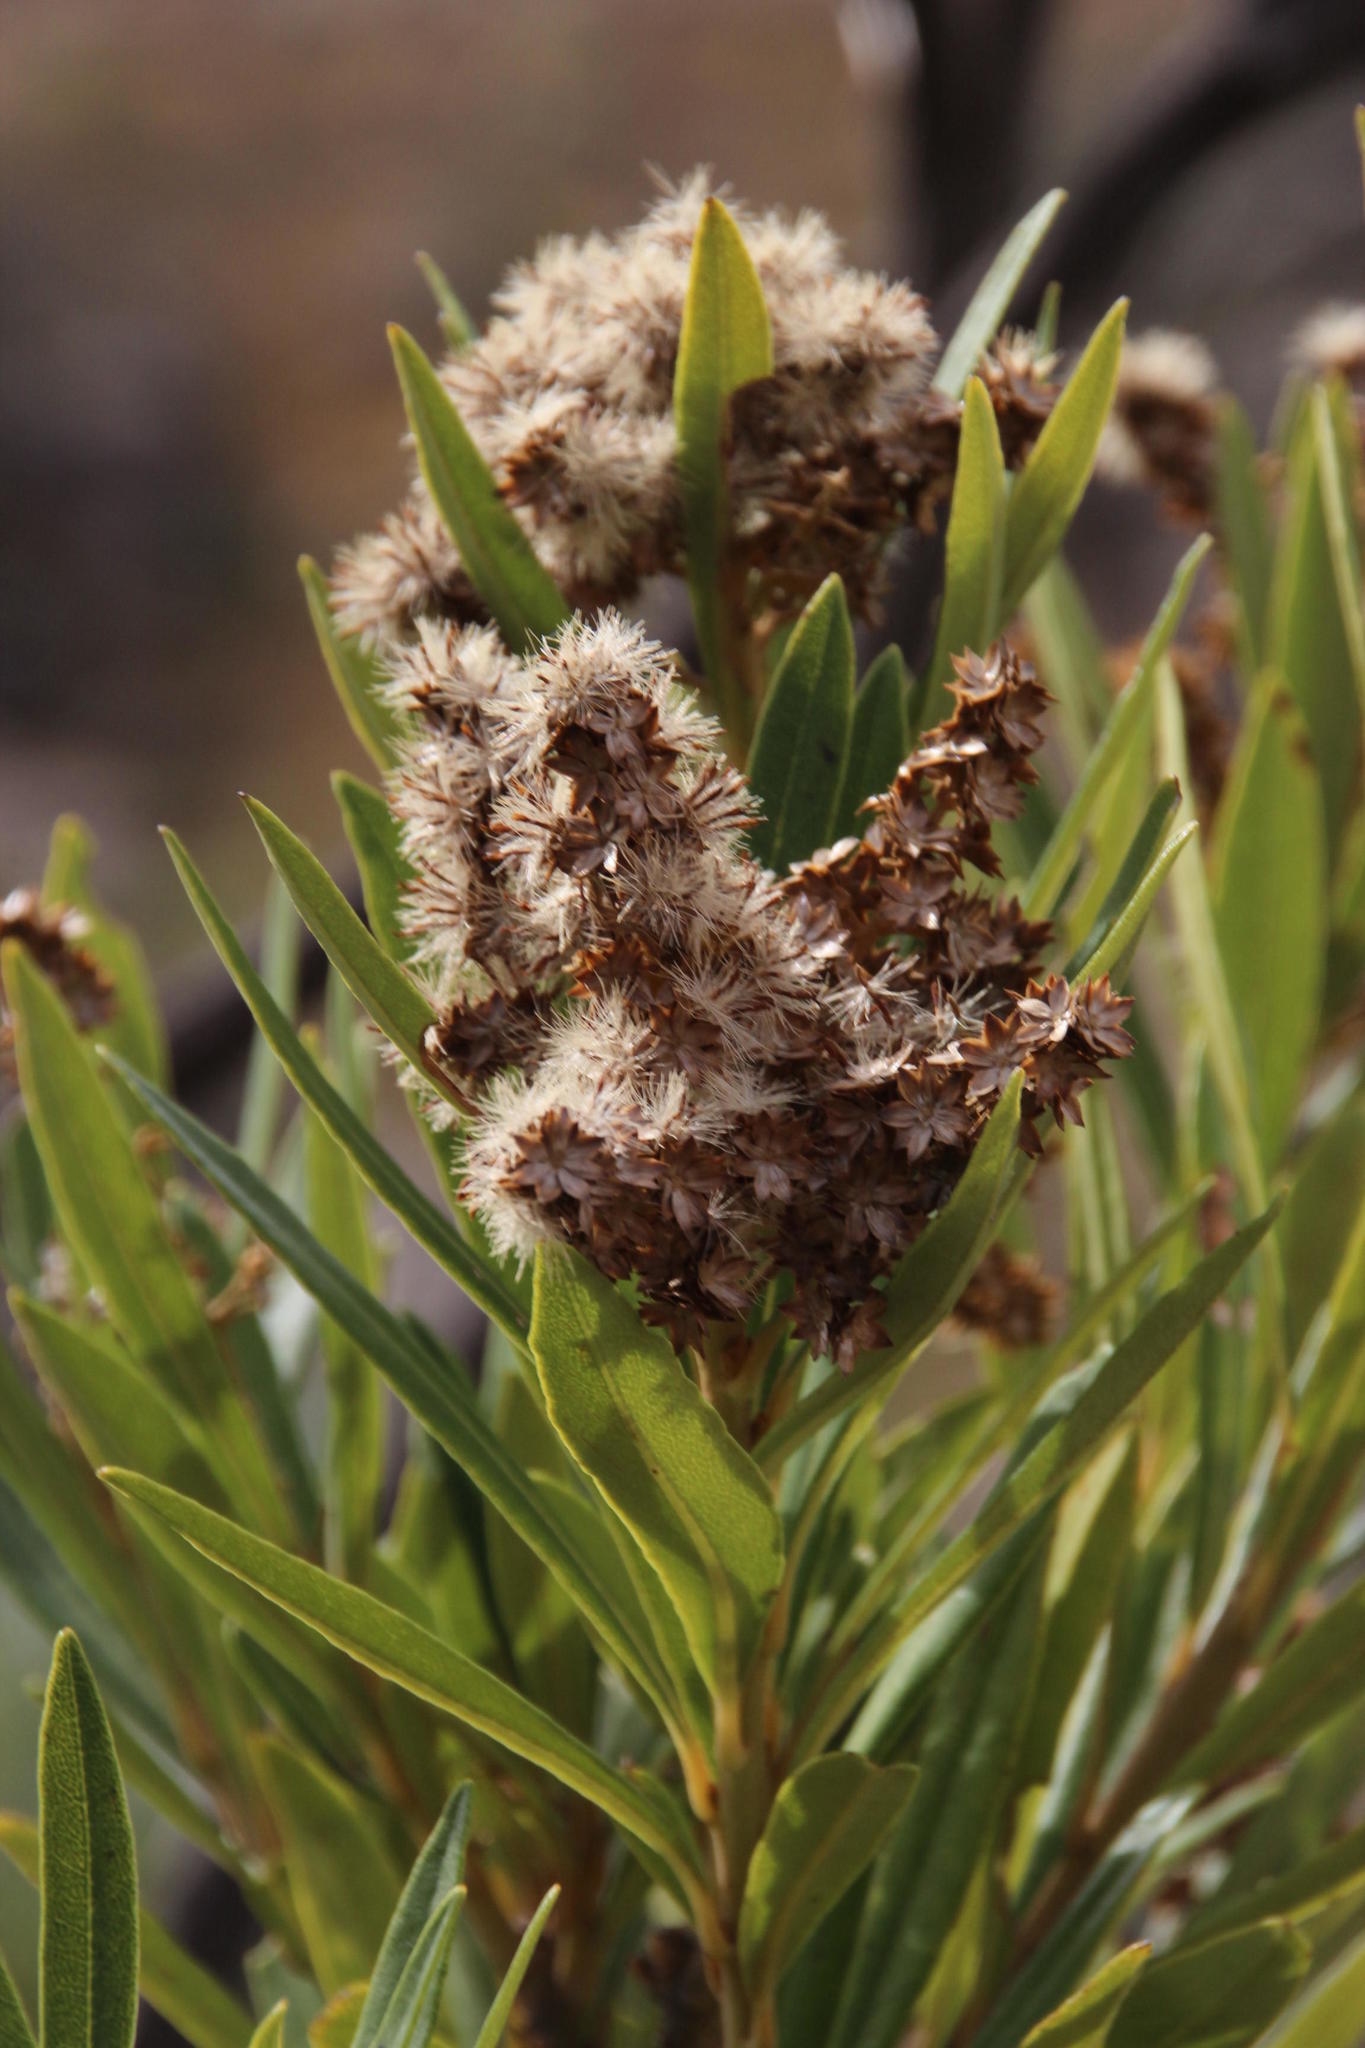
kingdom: Plantae
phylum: Tracheophyta
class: Magnoliopsida
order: Asterales
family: Asteraceae
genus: Brachylaena
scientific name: Brachylaena neriifolia
